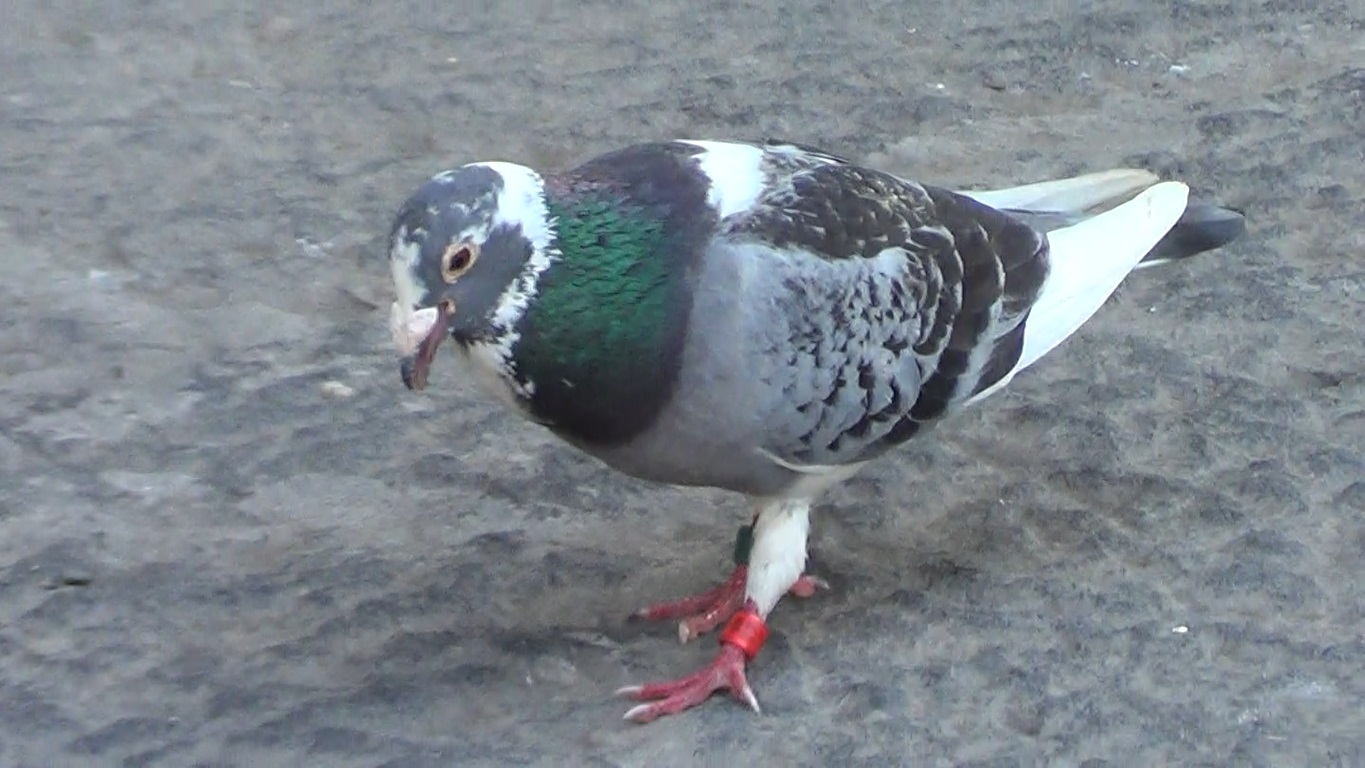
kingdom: Animalia
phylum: Chordata
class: Aves
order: Columbiformes
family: Columbidae
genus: Columba
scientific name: Columba livia
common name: Rock pigeon
